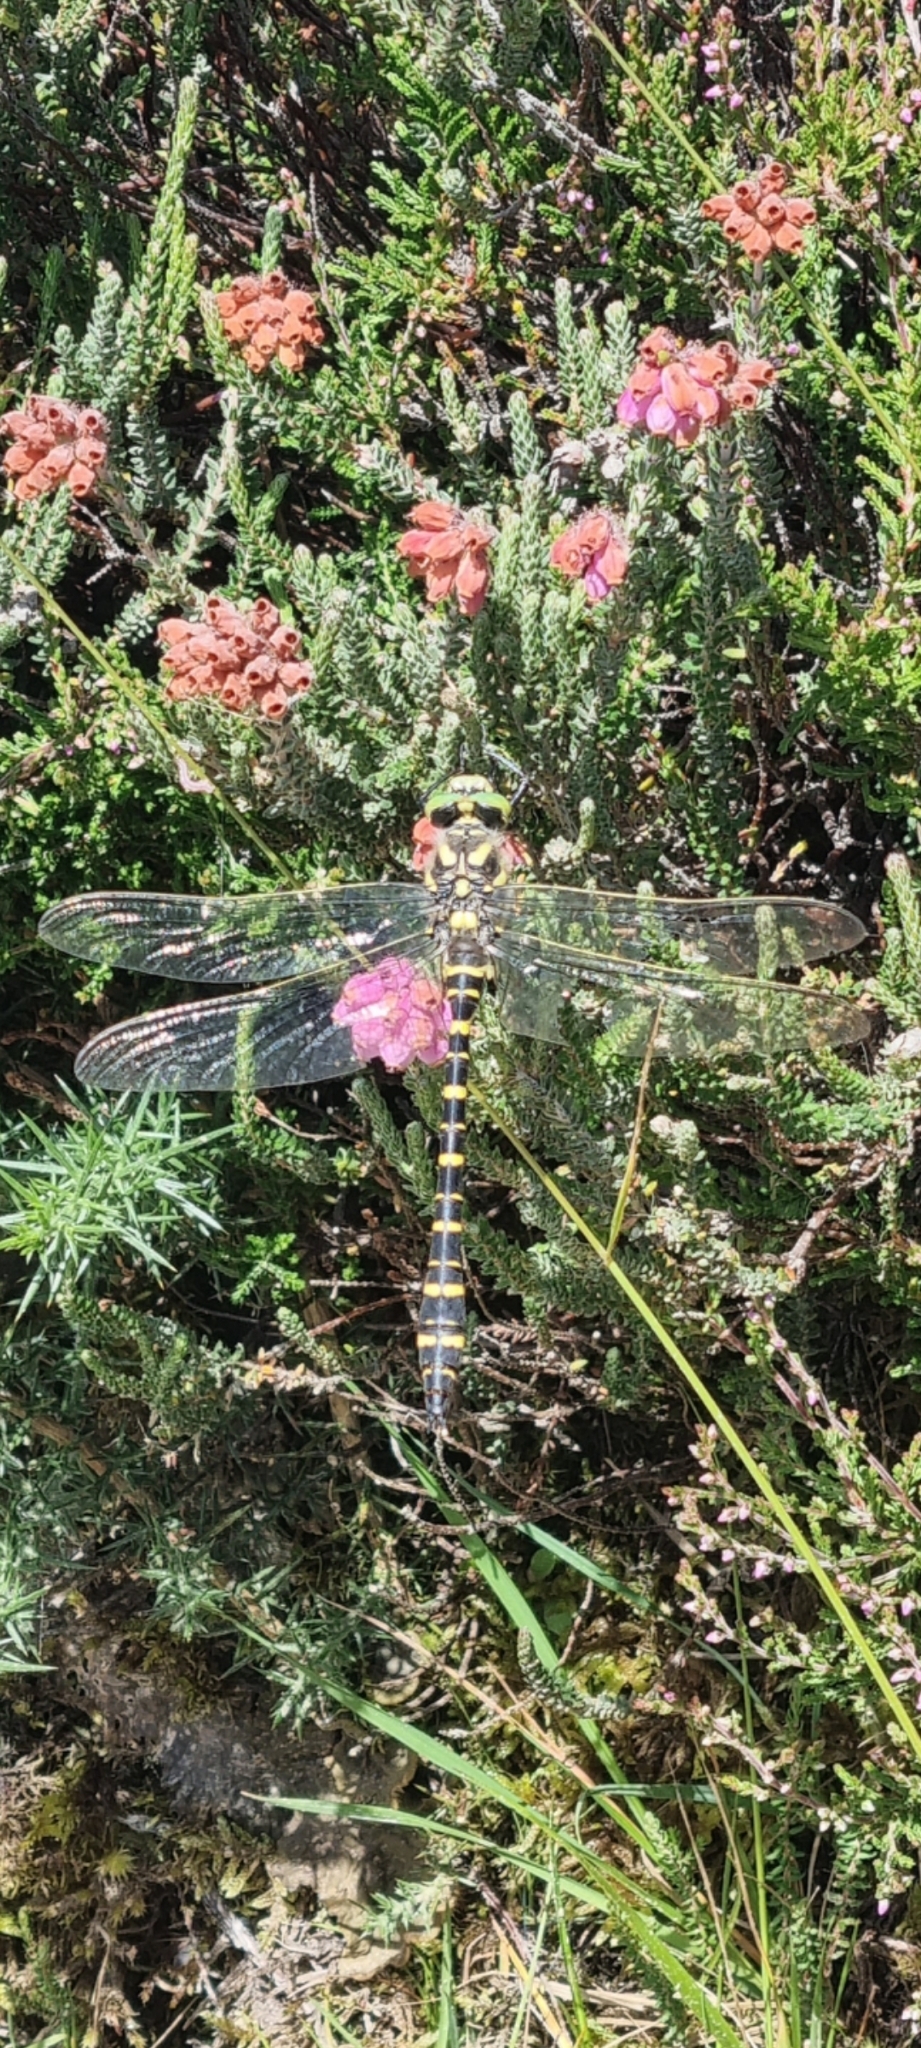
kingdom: Animalia
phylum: Arthropoda
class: Insecta
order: Odonata
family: Cordulegastridae
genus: Cordulegaster
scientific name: Cordulegaster boltonii
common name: Golden-ringed dragonfly
